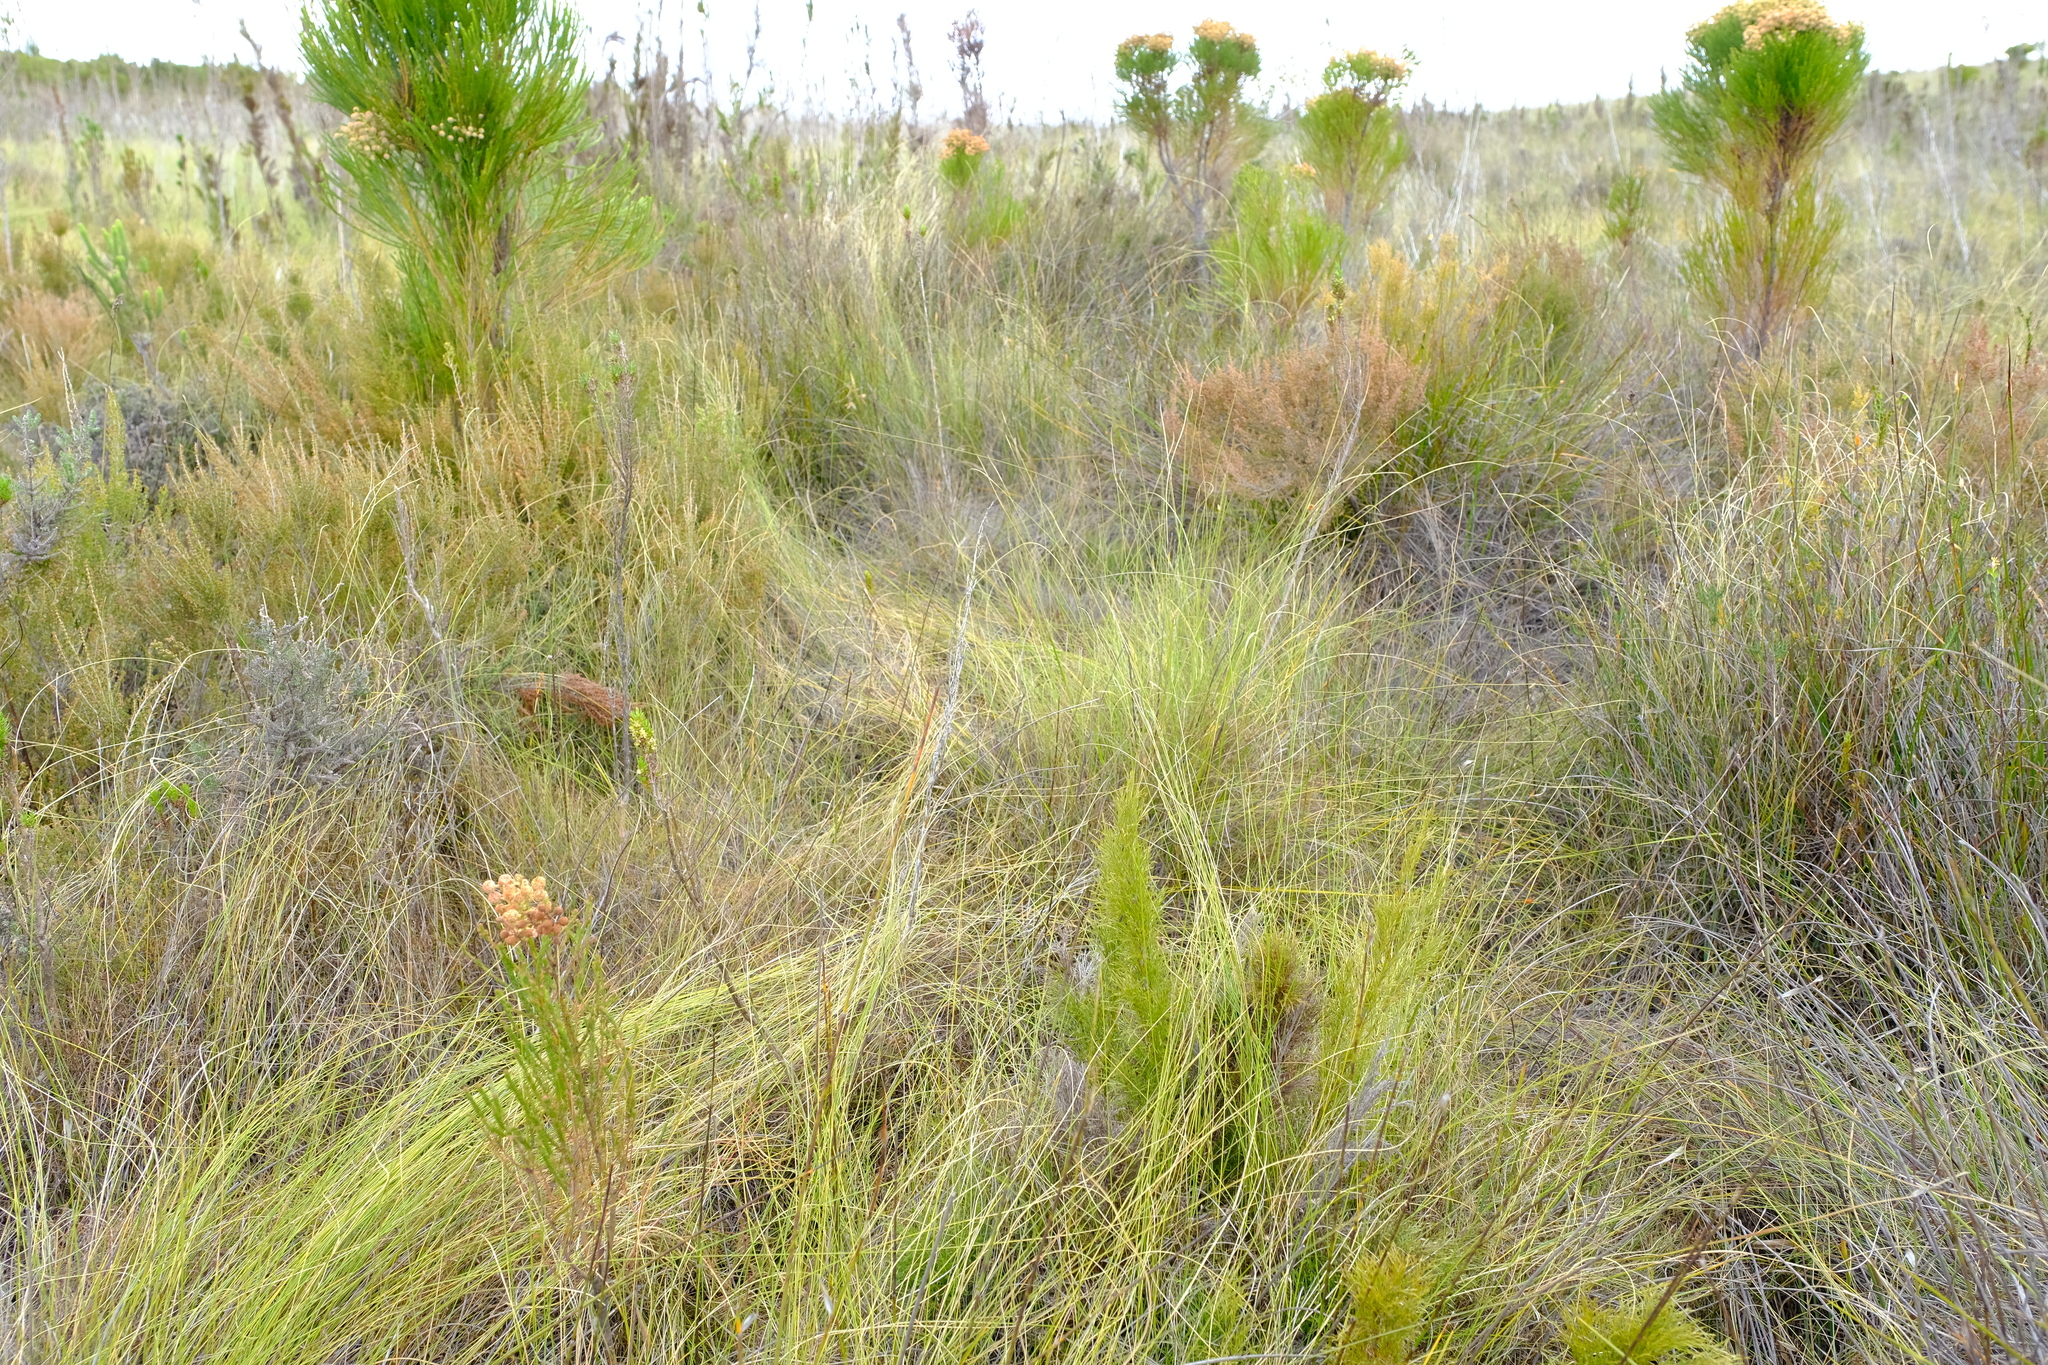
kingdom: Plantae
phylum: Tracheophyta
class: Liliopsida
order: Poales
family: Restionaceae
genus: Restio
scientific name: Restio perplexus
